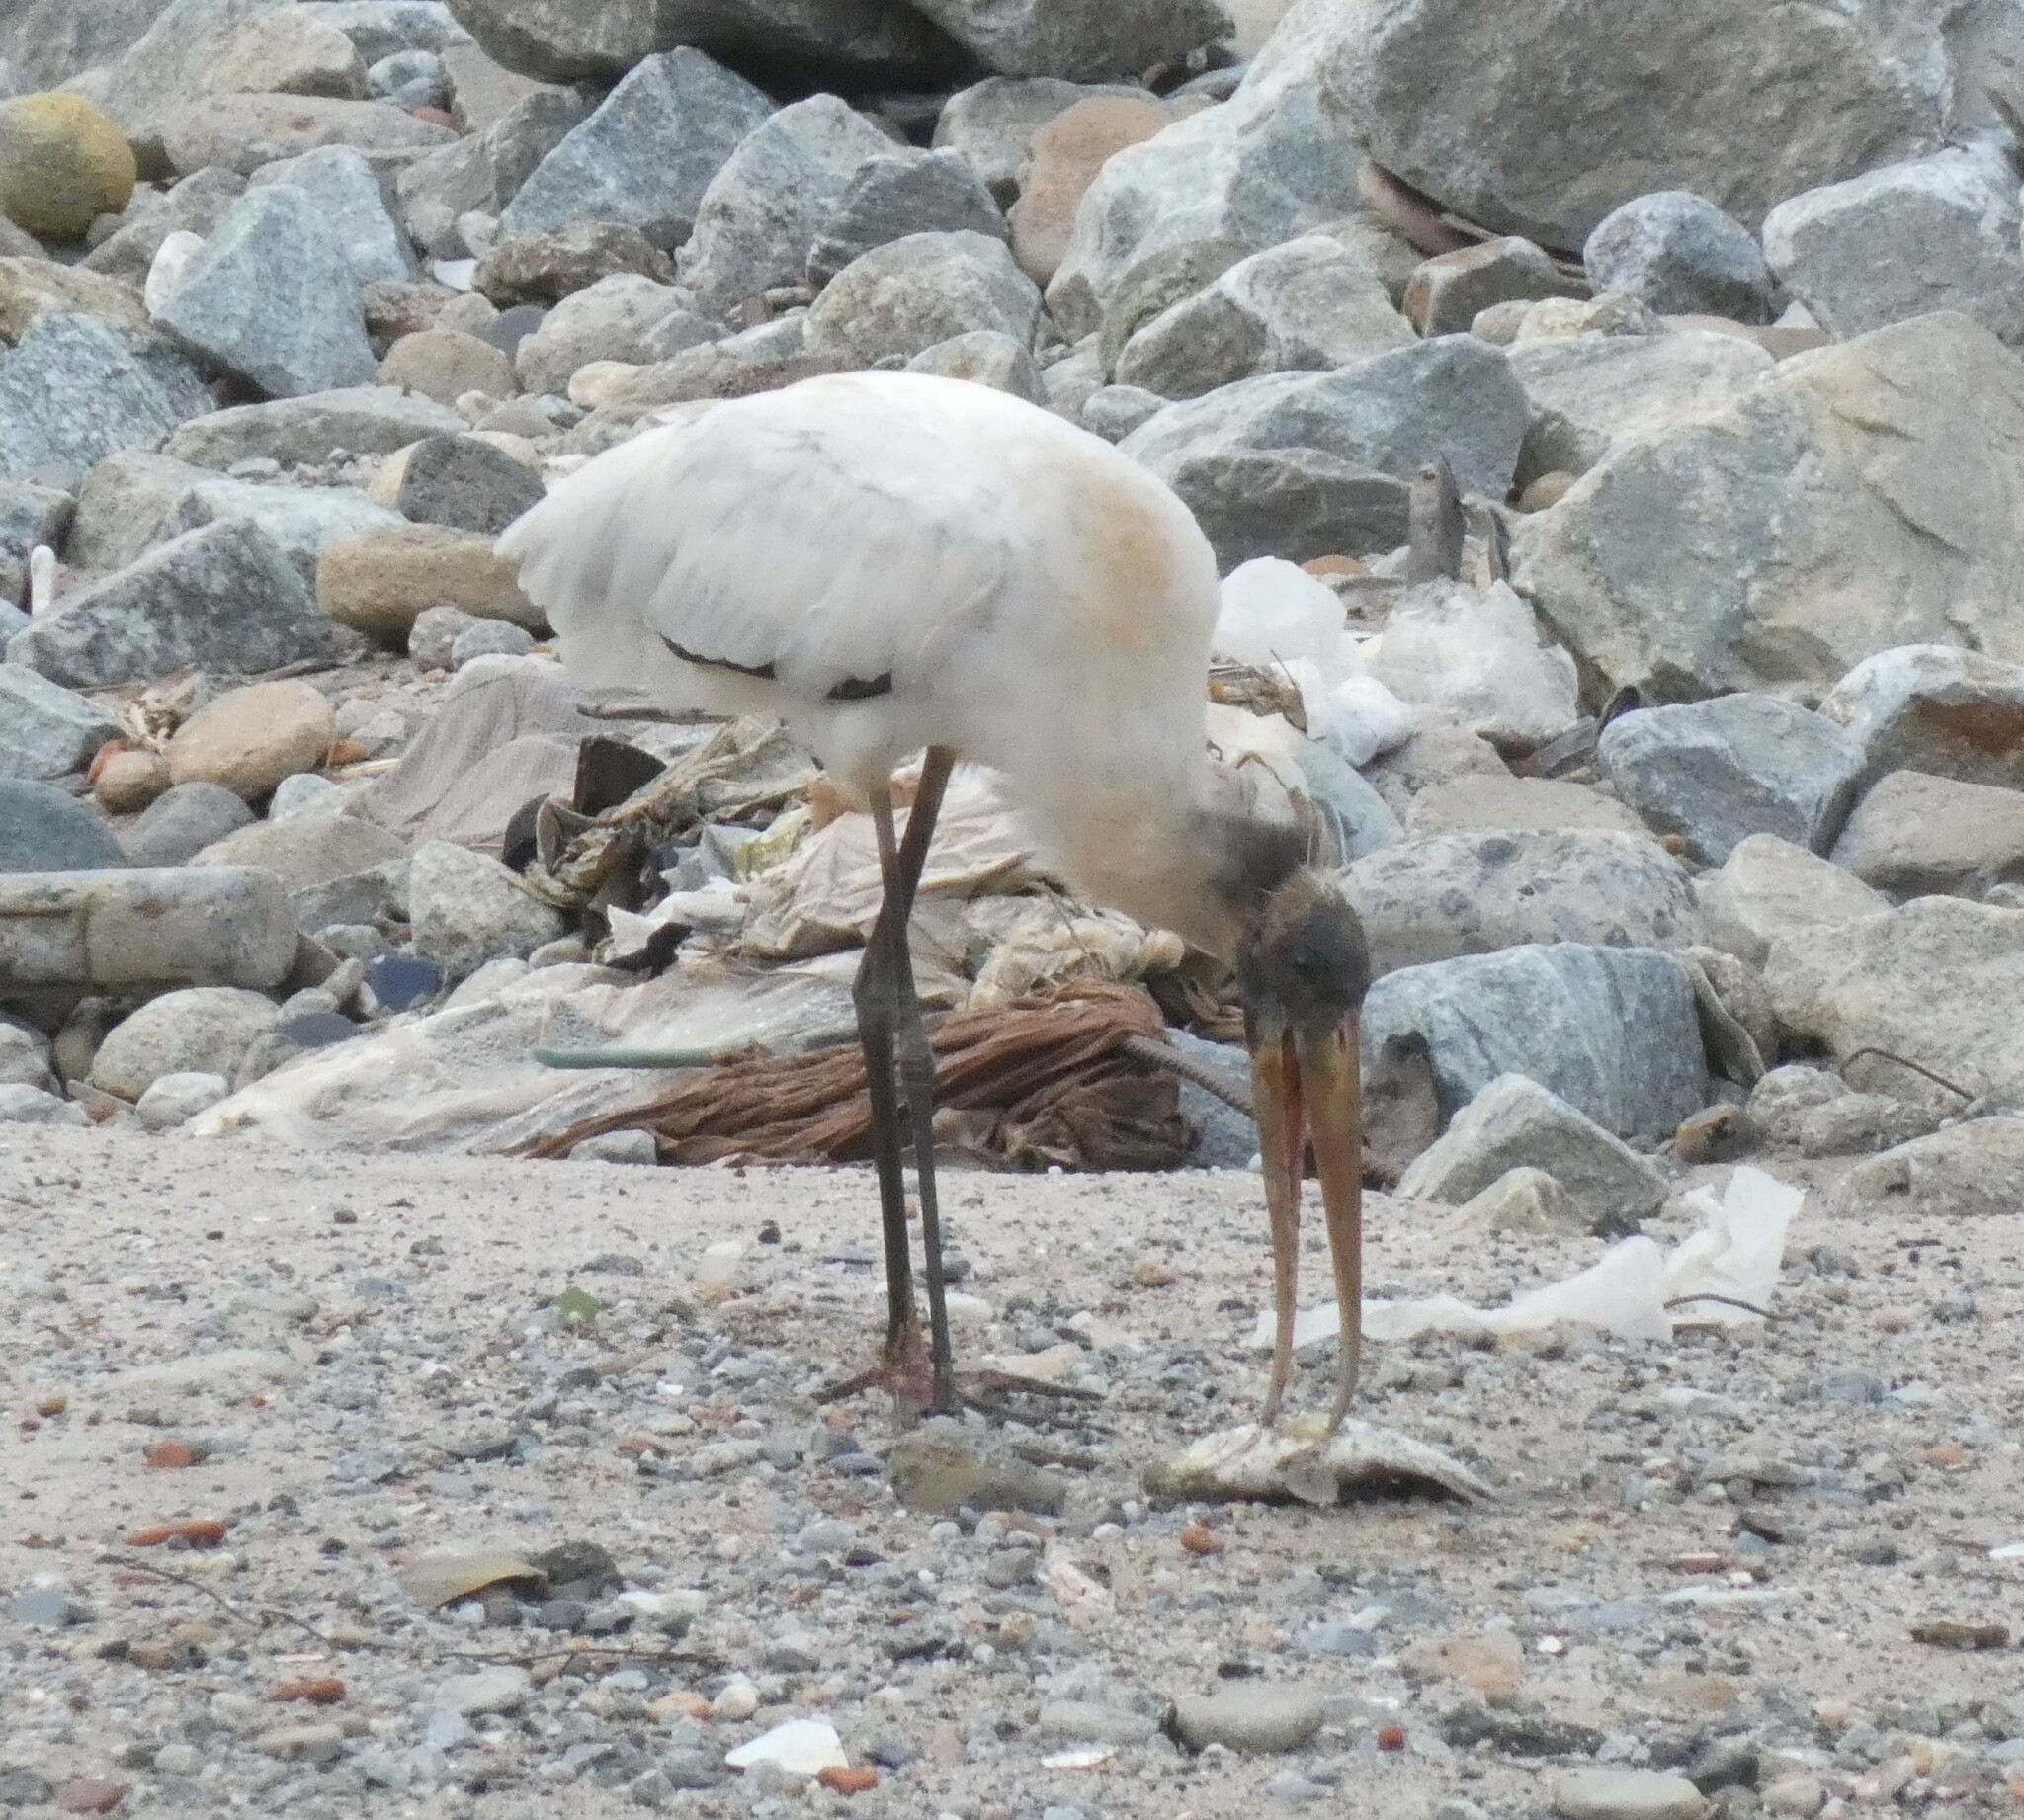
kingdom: Animalia
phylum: Chordata
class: Aves
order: Ciconiiformes
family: Ciconiidae
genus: Mycteria
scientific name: Mycteria americana
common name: Wood stork
